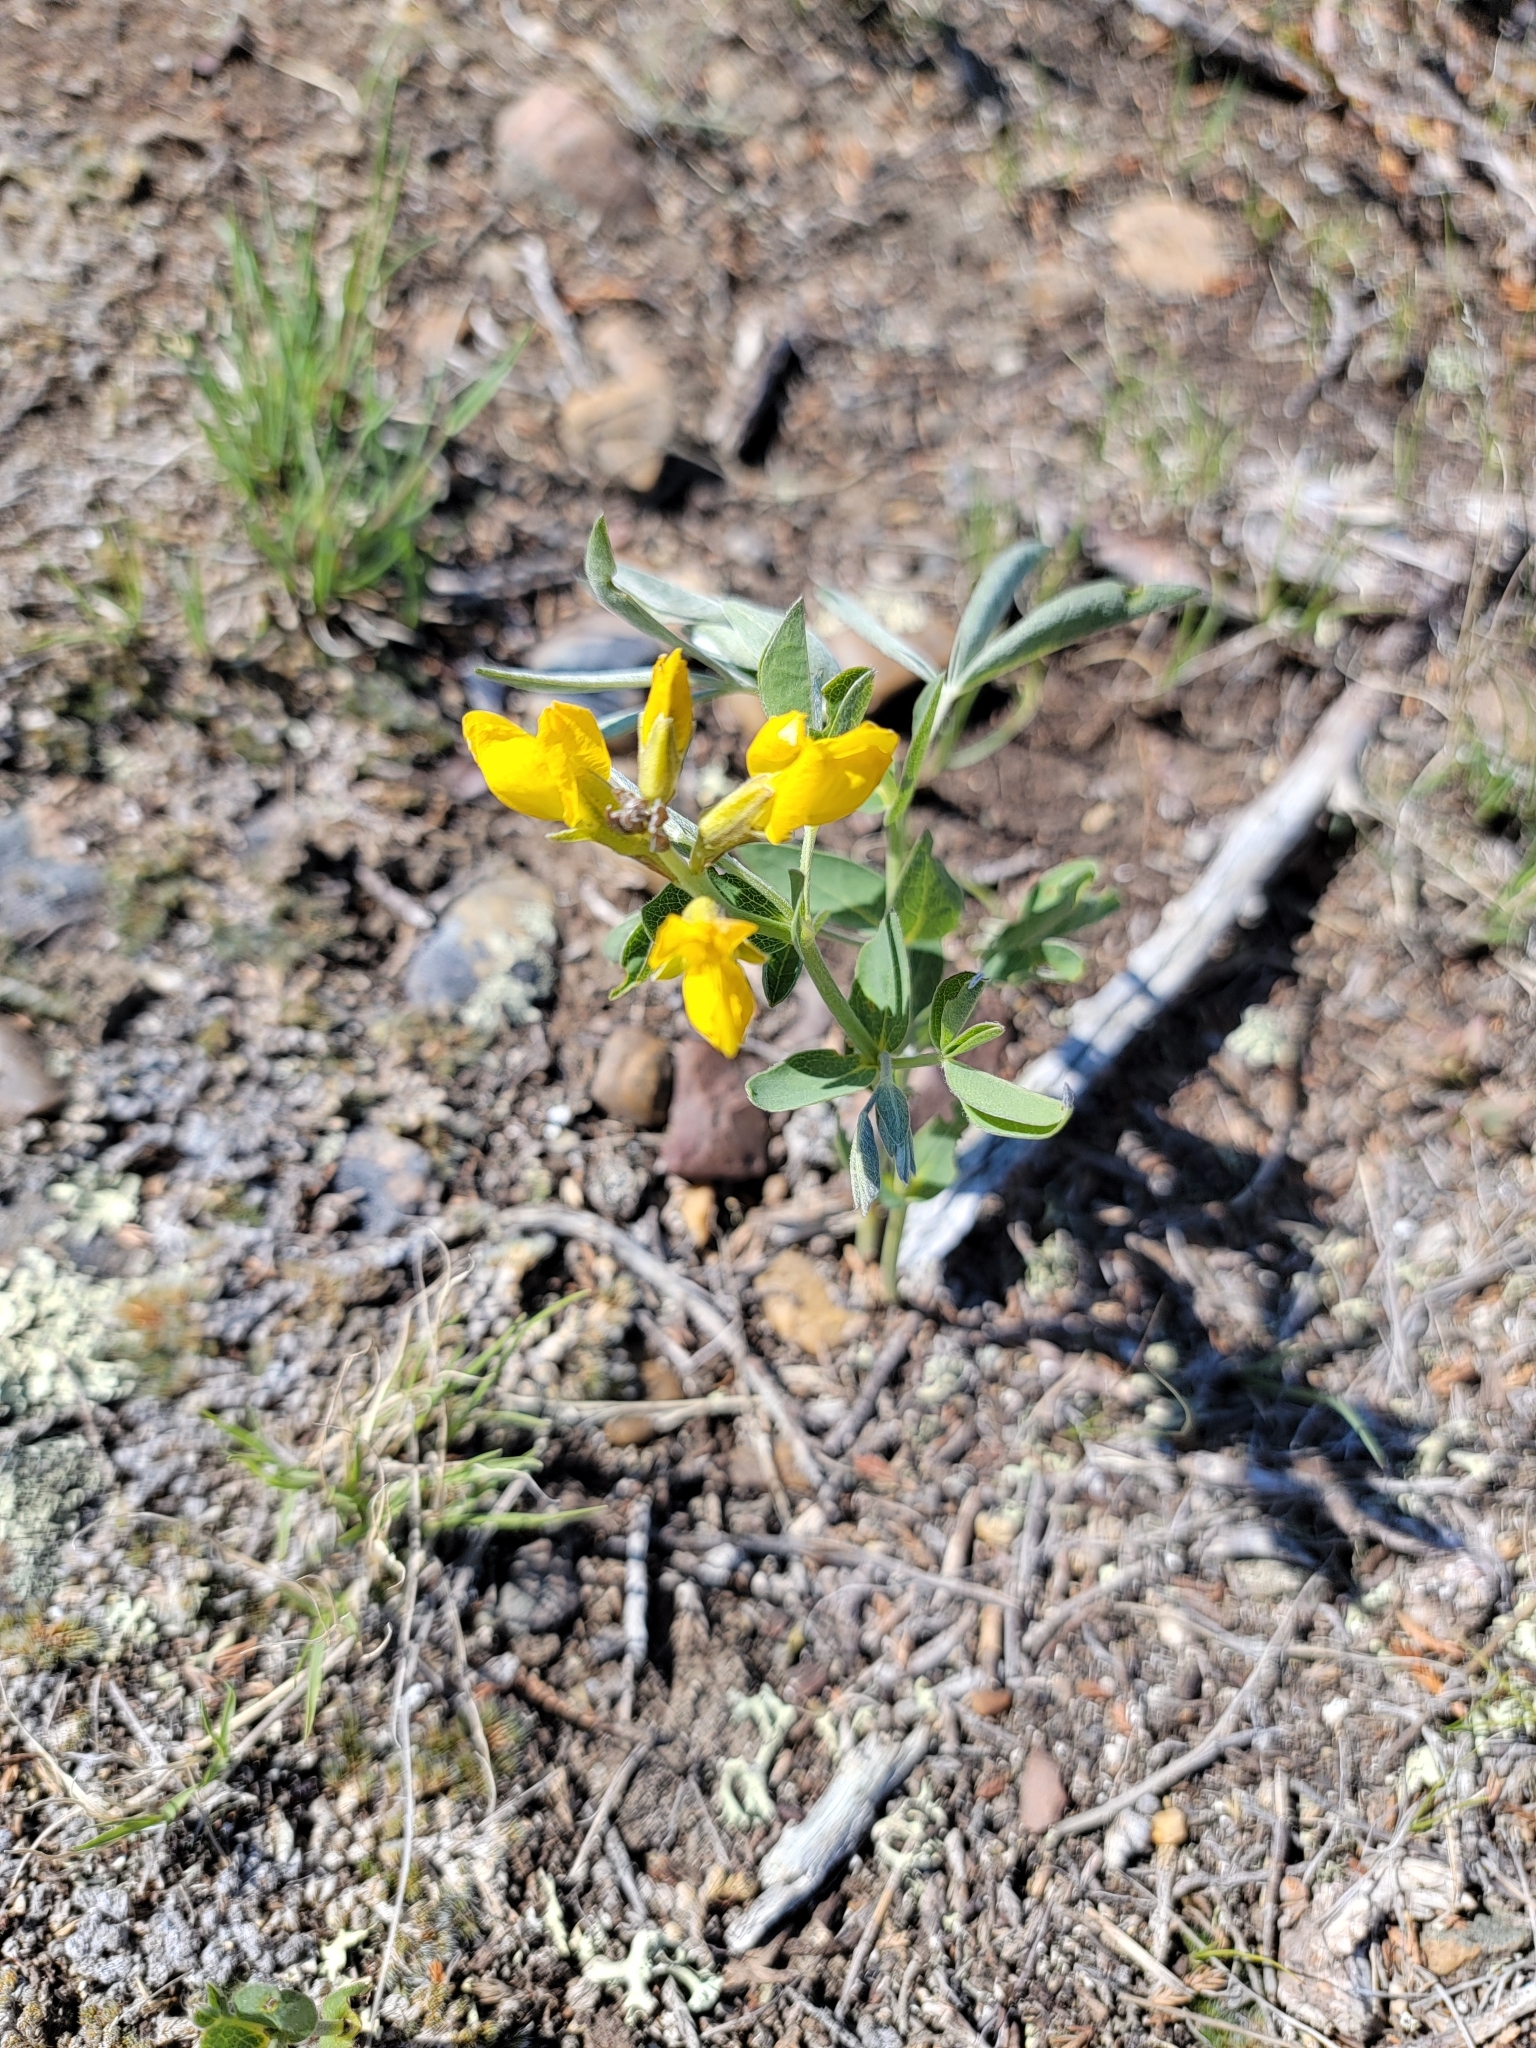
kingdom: Plantae
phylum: Tracheophyta
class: Magnoliopsida
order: Fabales
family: Fabaceae
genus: Thermopsis
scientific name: Thermopsis rhombifolia
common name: Circle-pod-pea
